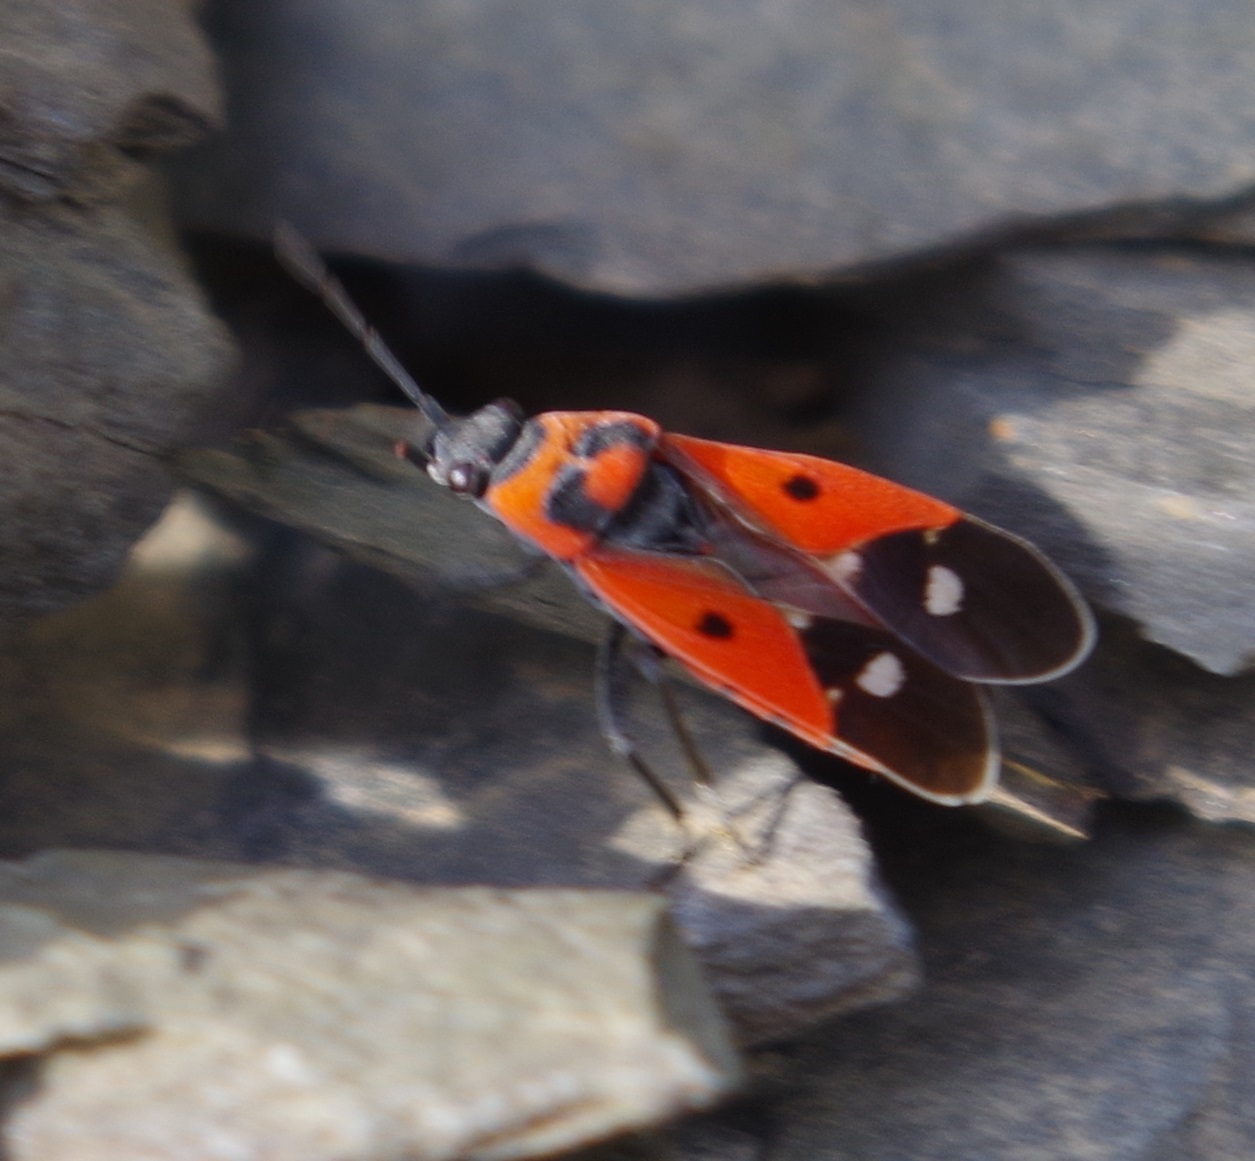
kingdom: Animalia
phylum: Arthropoda
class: Insecta
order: Hemiptera
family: Lygaeidae
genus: Melanocoryphus
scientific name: Melanocoryphus albomaculatus
